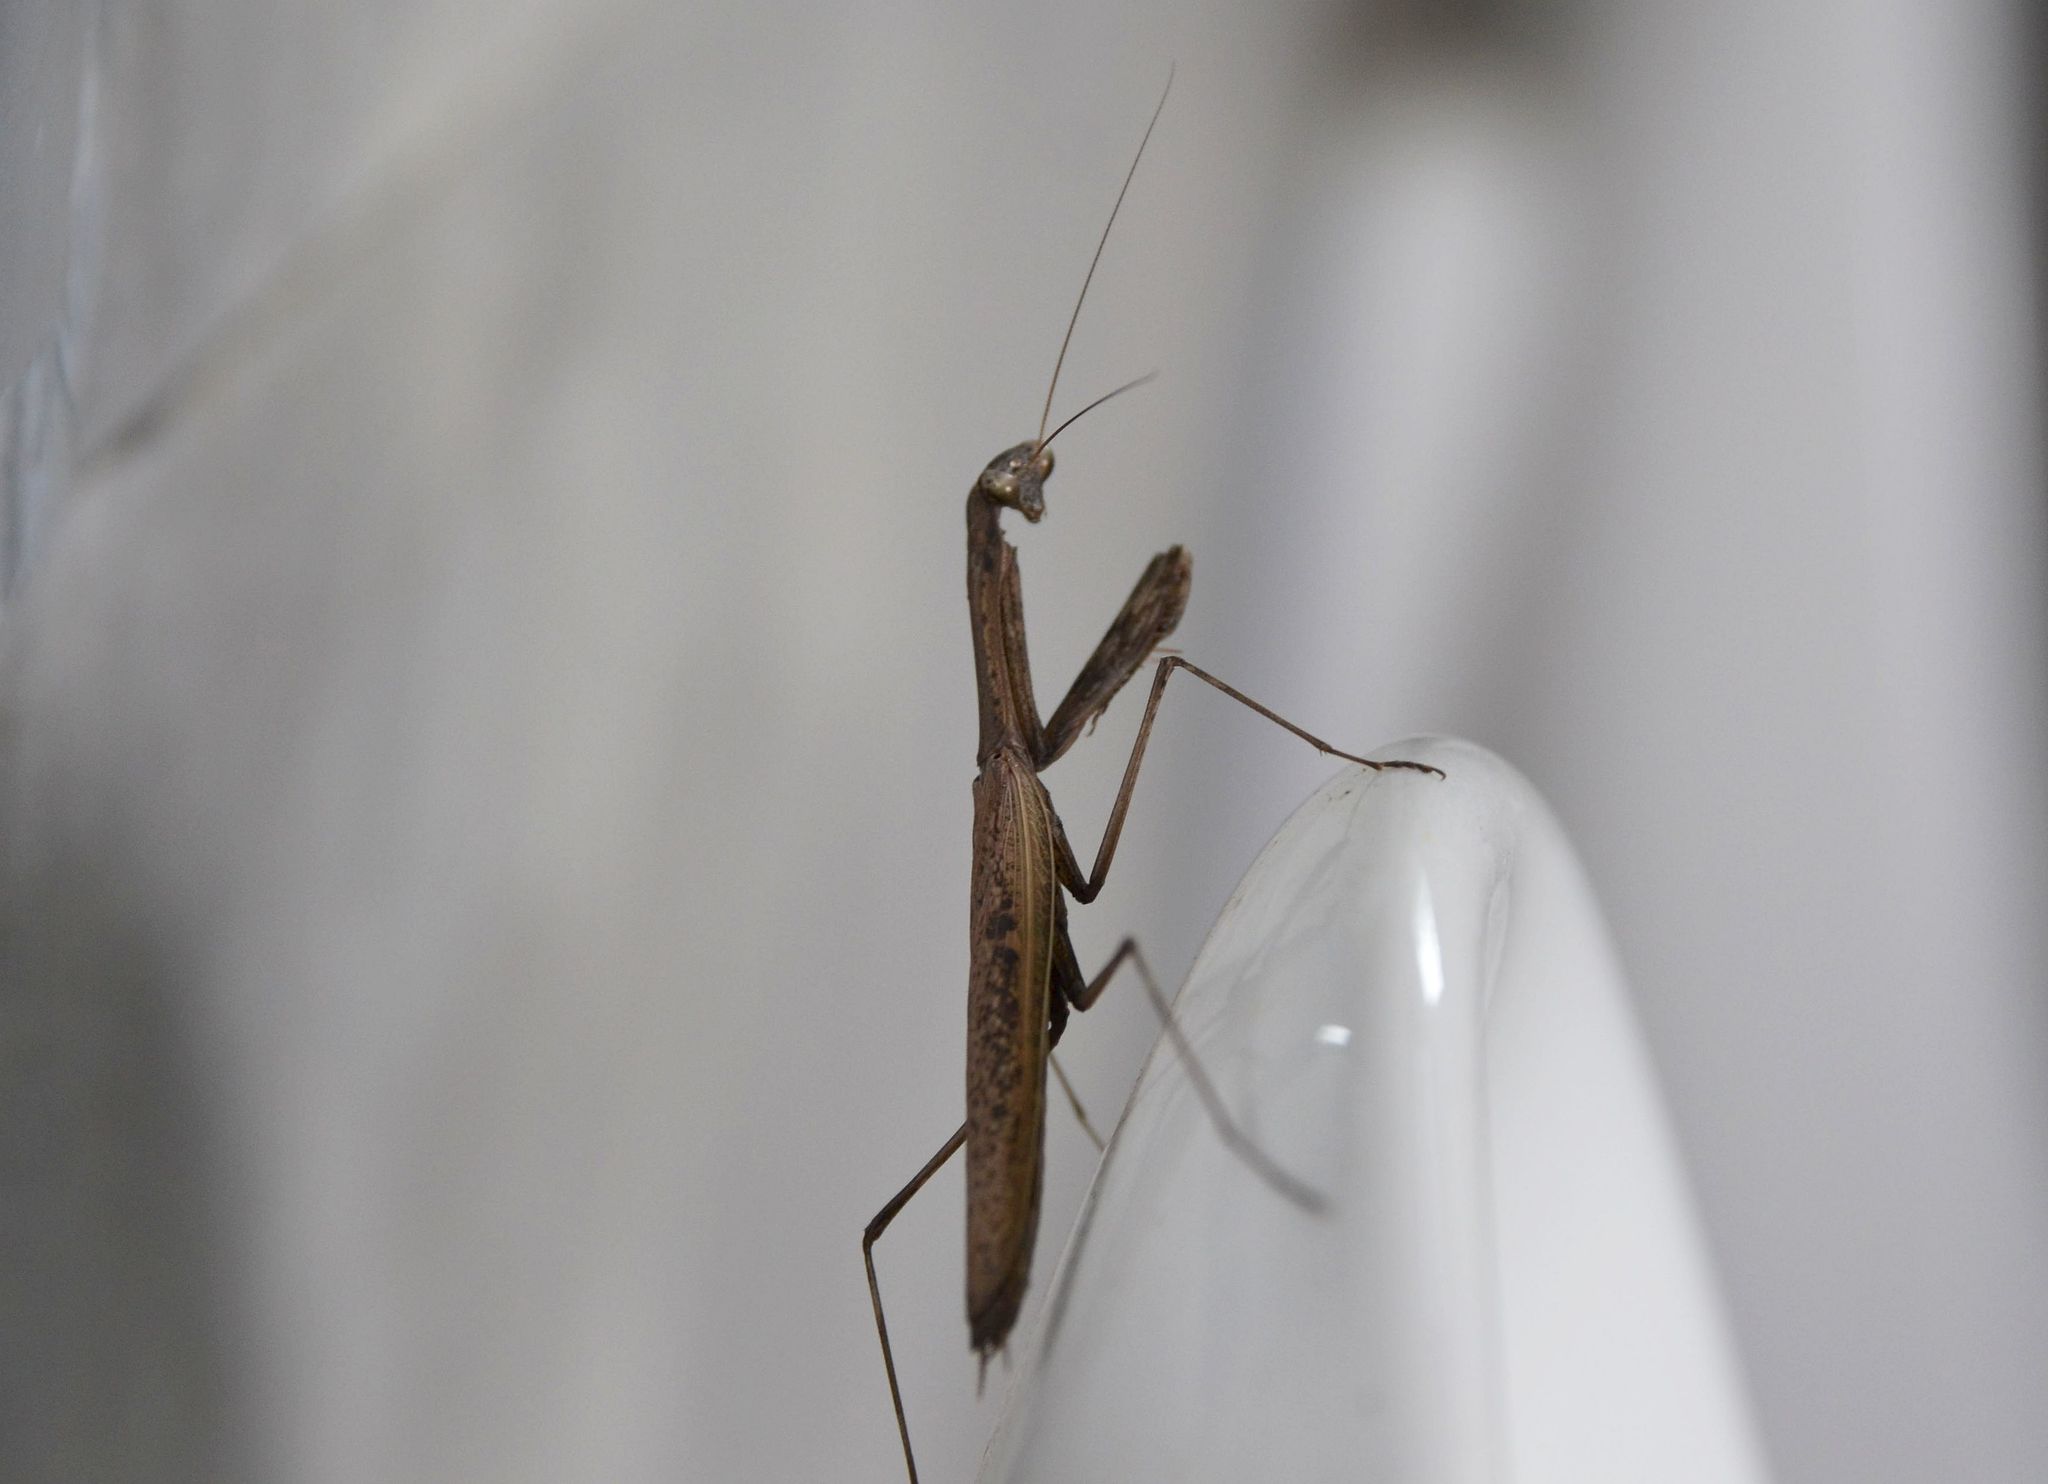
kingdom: Animalia
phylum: Arthropoda
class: Insecta
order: Mantodea
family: Mantidae
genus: Statilia
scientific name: Statilia maculata
